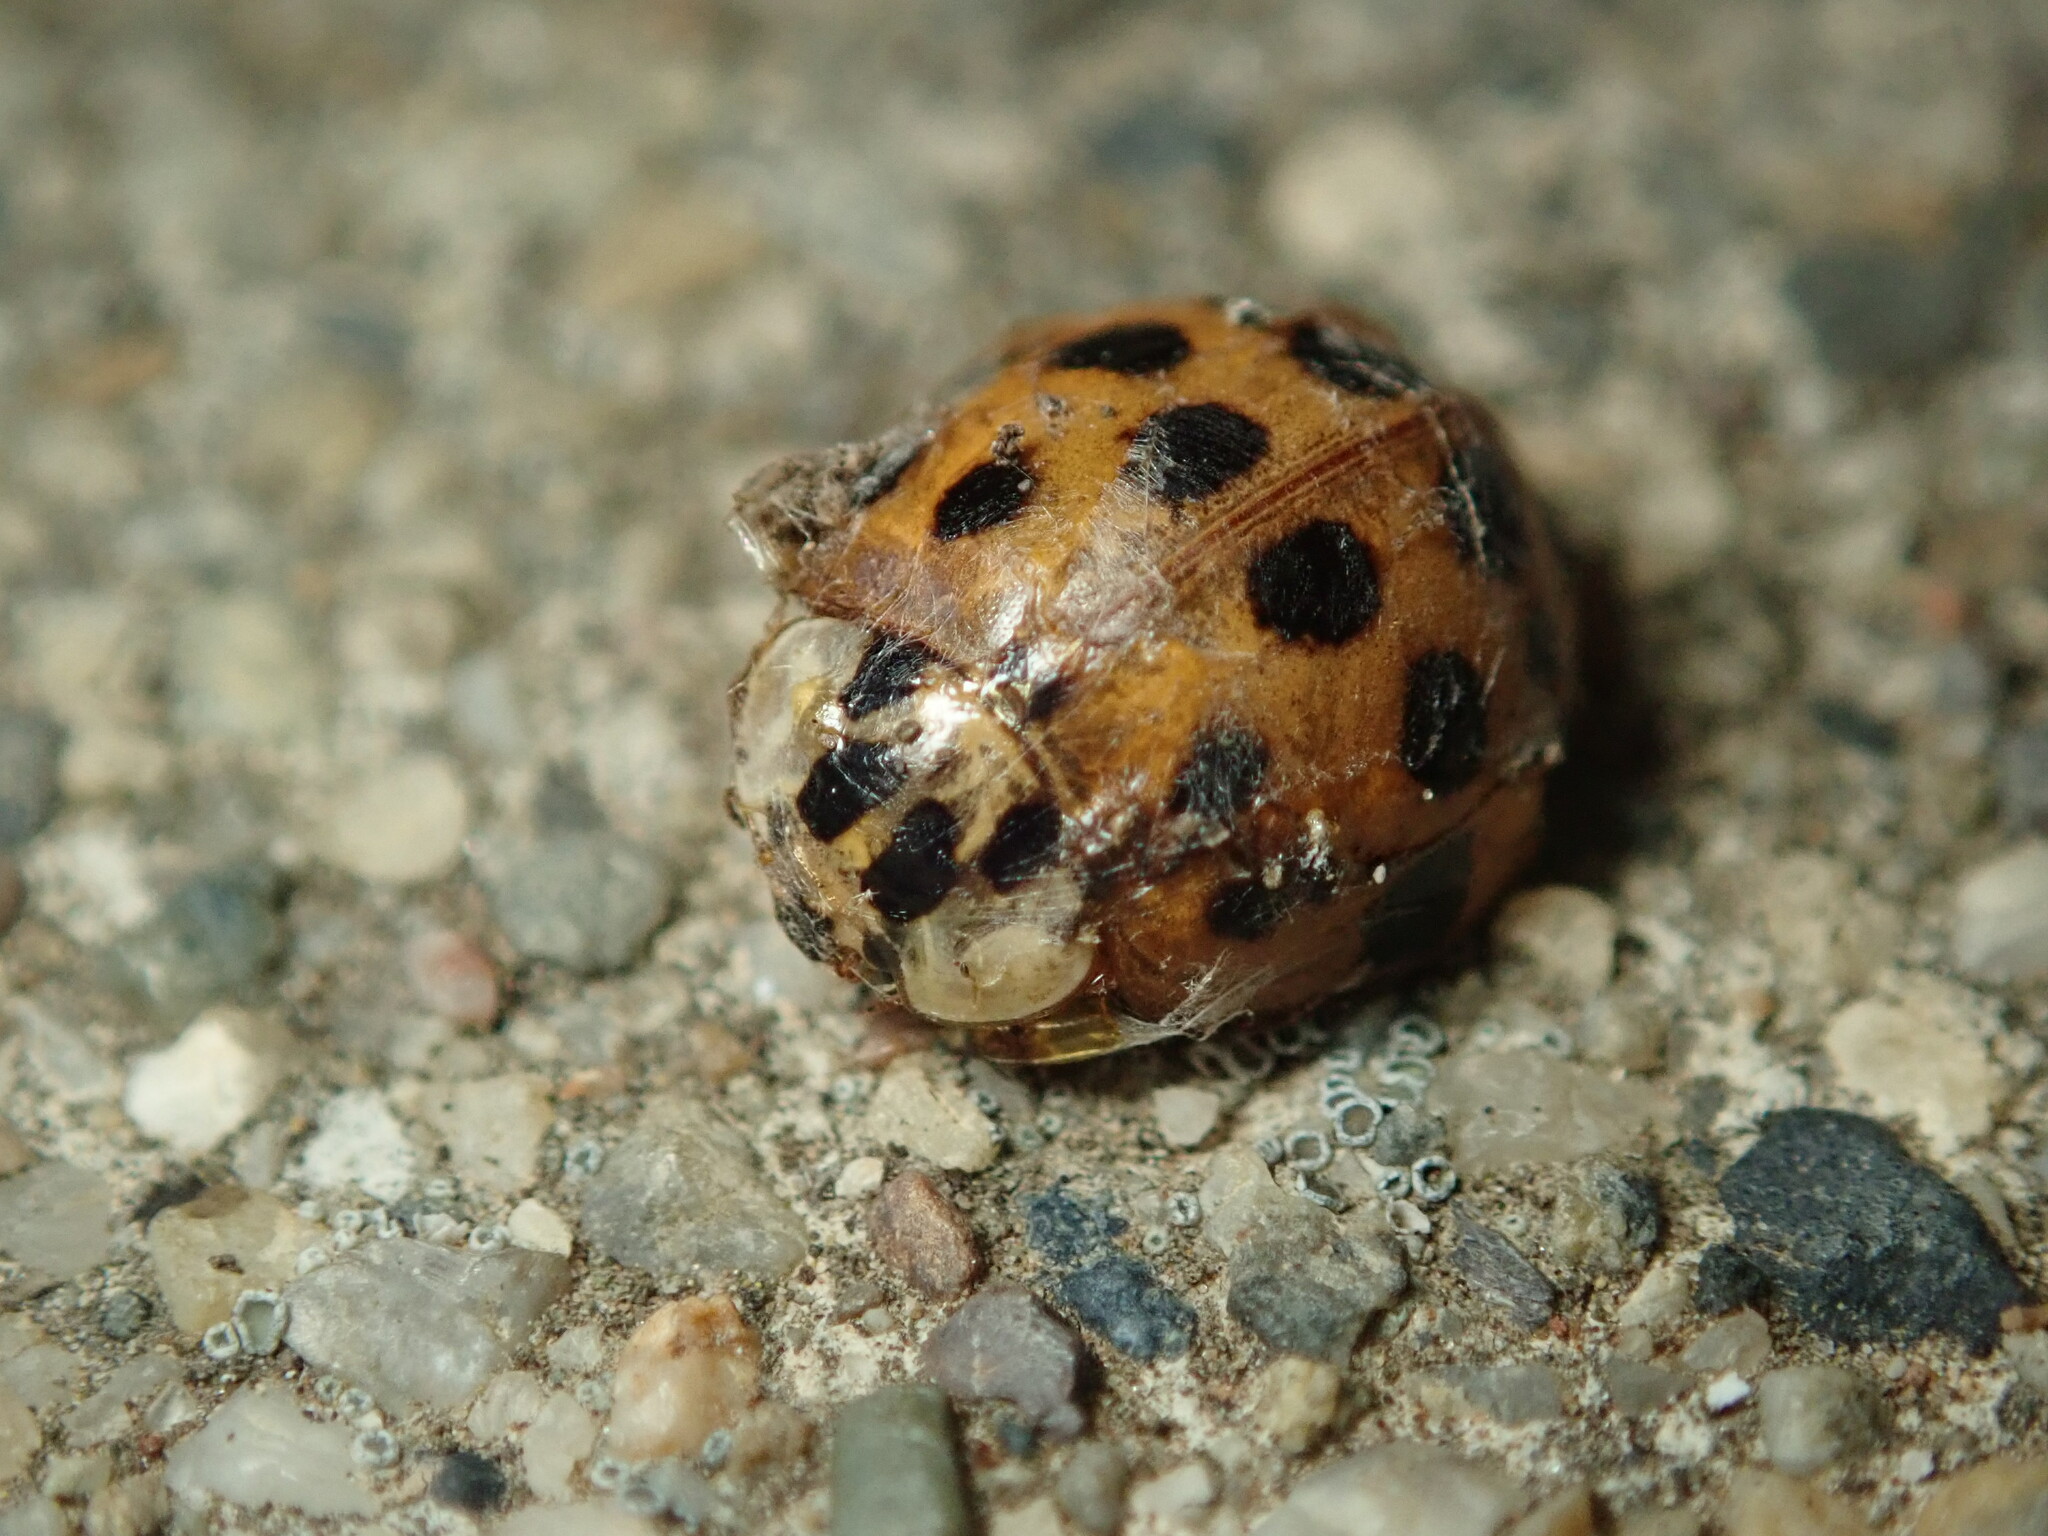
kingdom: Animalia
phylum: Arthropoda
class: Insecta
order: Coleoptera
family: Coccinellidae
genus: Harmonia
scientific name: Harmonia axyridis
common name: Harlequin ladybird
